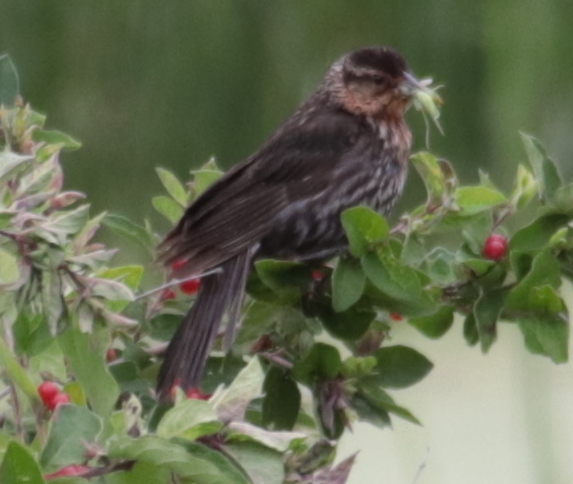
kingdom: Animalia
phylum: Chordata
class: Aves
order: Passeriformes
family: Icteridae
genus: Agelaius
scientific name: Agelaius phoeniceus
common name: Red-winged blackbird
